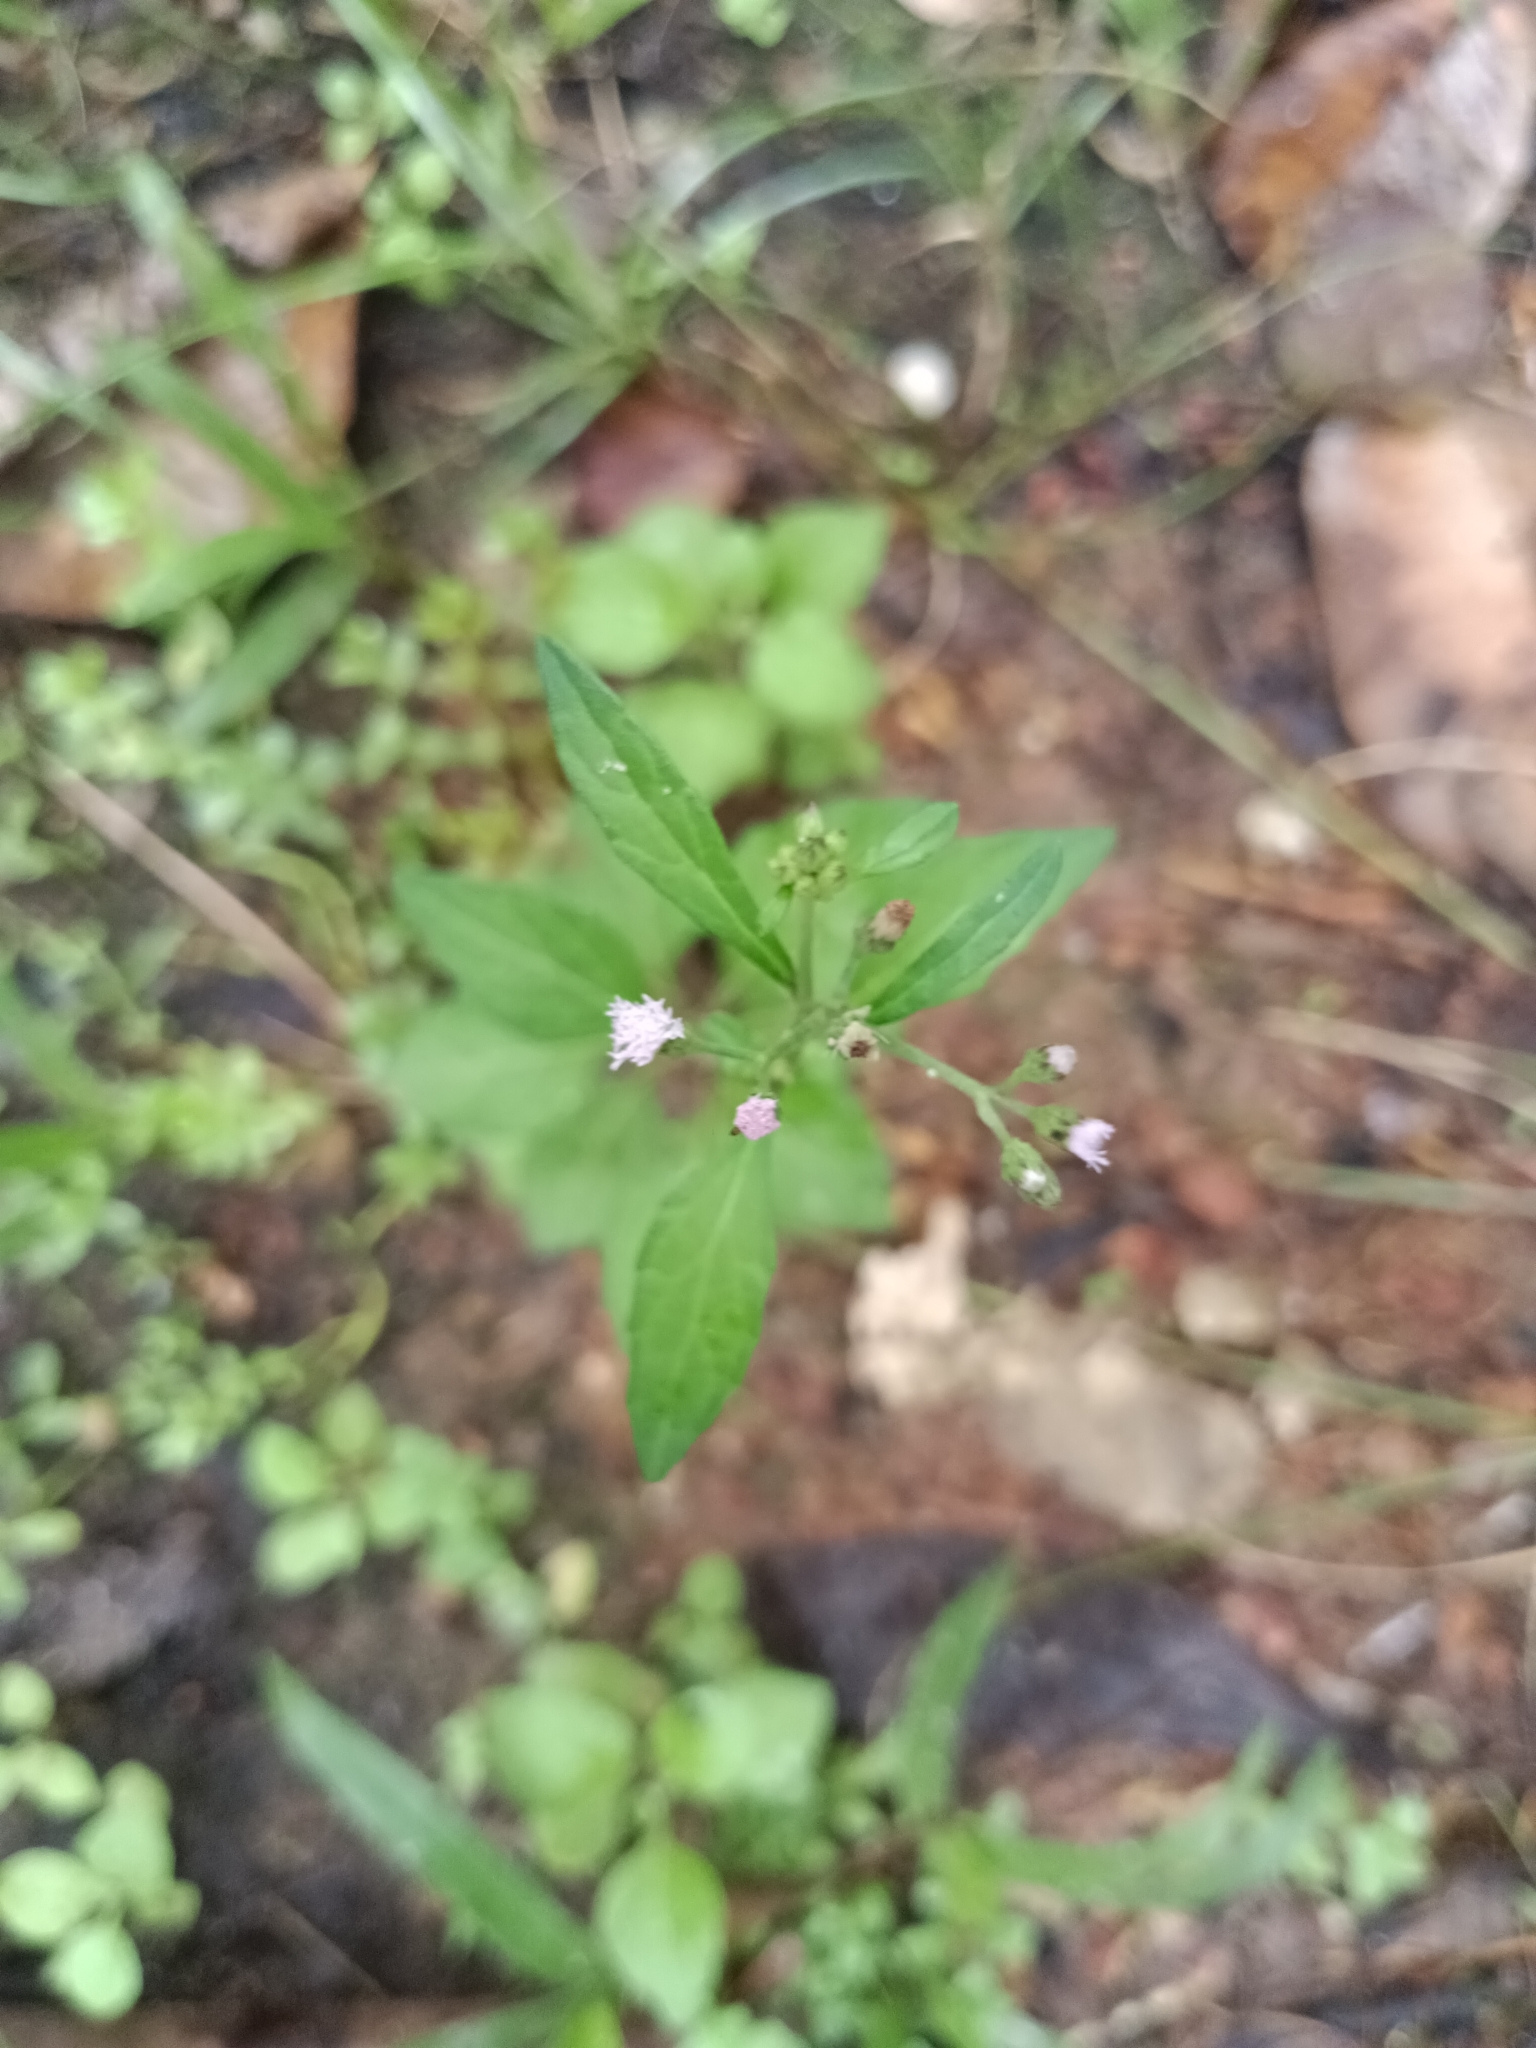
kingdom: Plantae
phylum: Tracheophyta
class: Magnoliopsida
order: Asterales
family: Asteraceae
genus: Cyanthillium
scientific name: Cyanthillium cinereum
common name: Little ironweed
